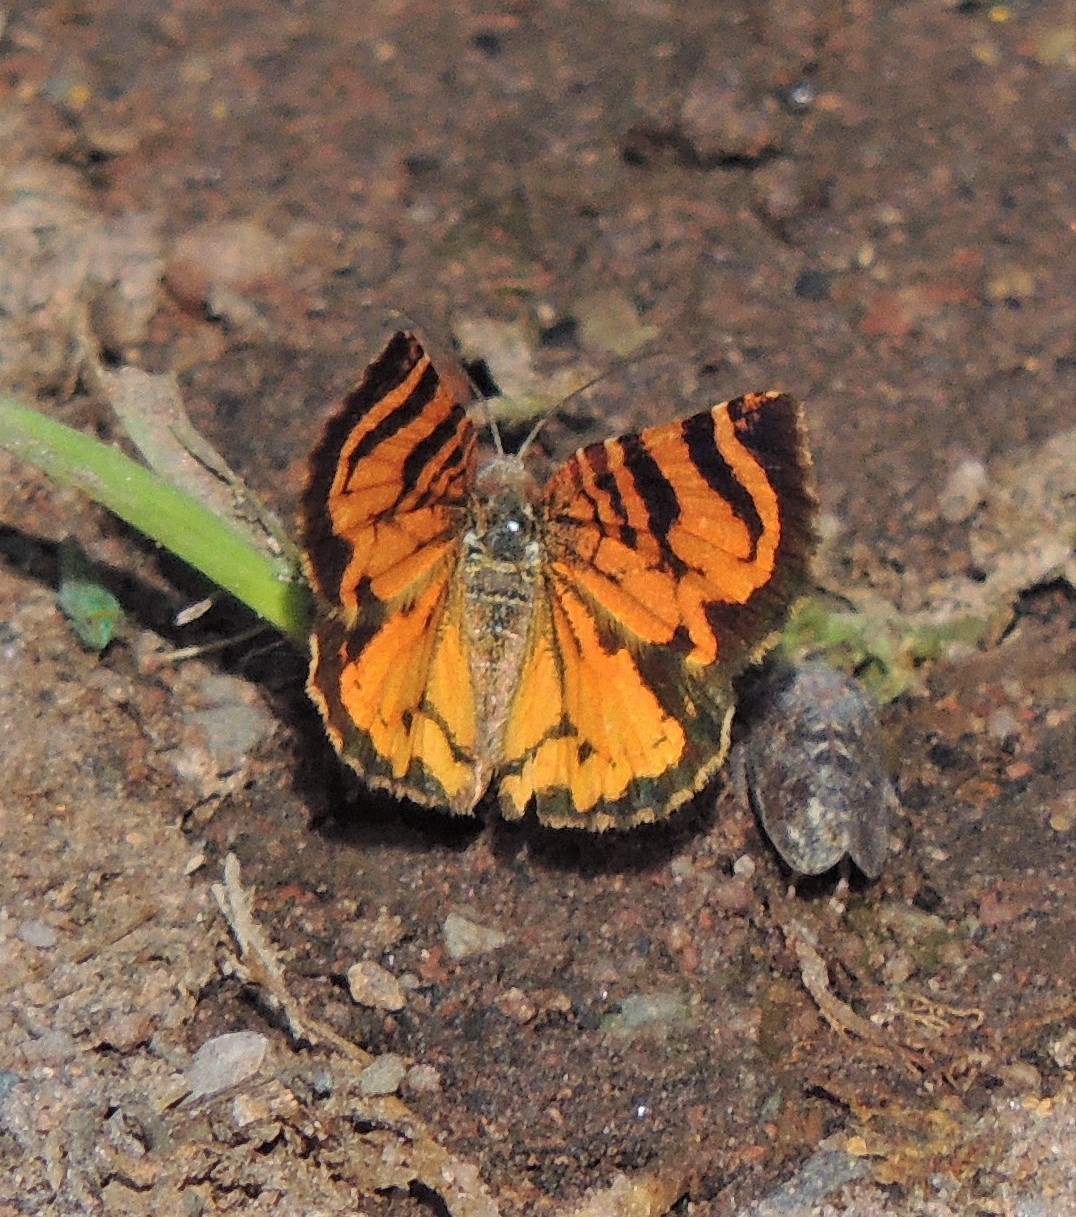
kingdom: Animalia
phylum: Arthropoda
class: Insecta
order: Lepidoptera
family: Geometridae
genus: Heterusia
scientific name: Heterusia cruciata
